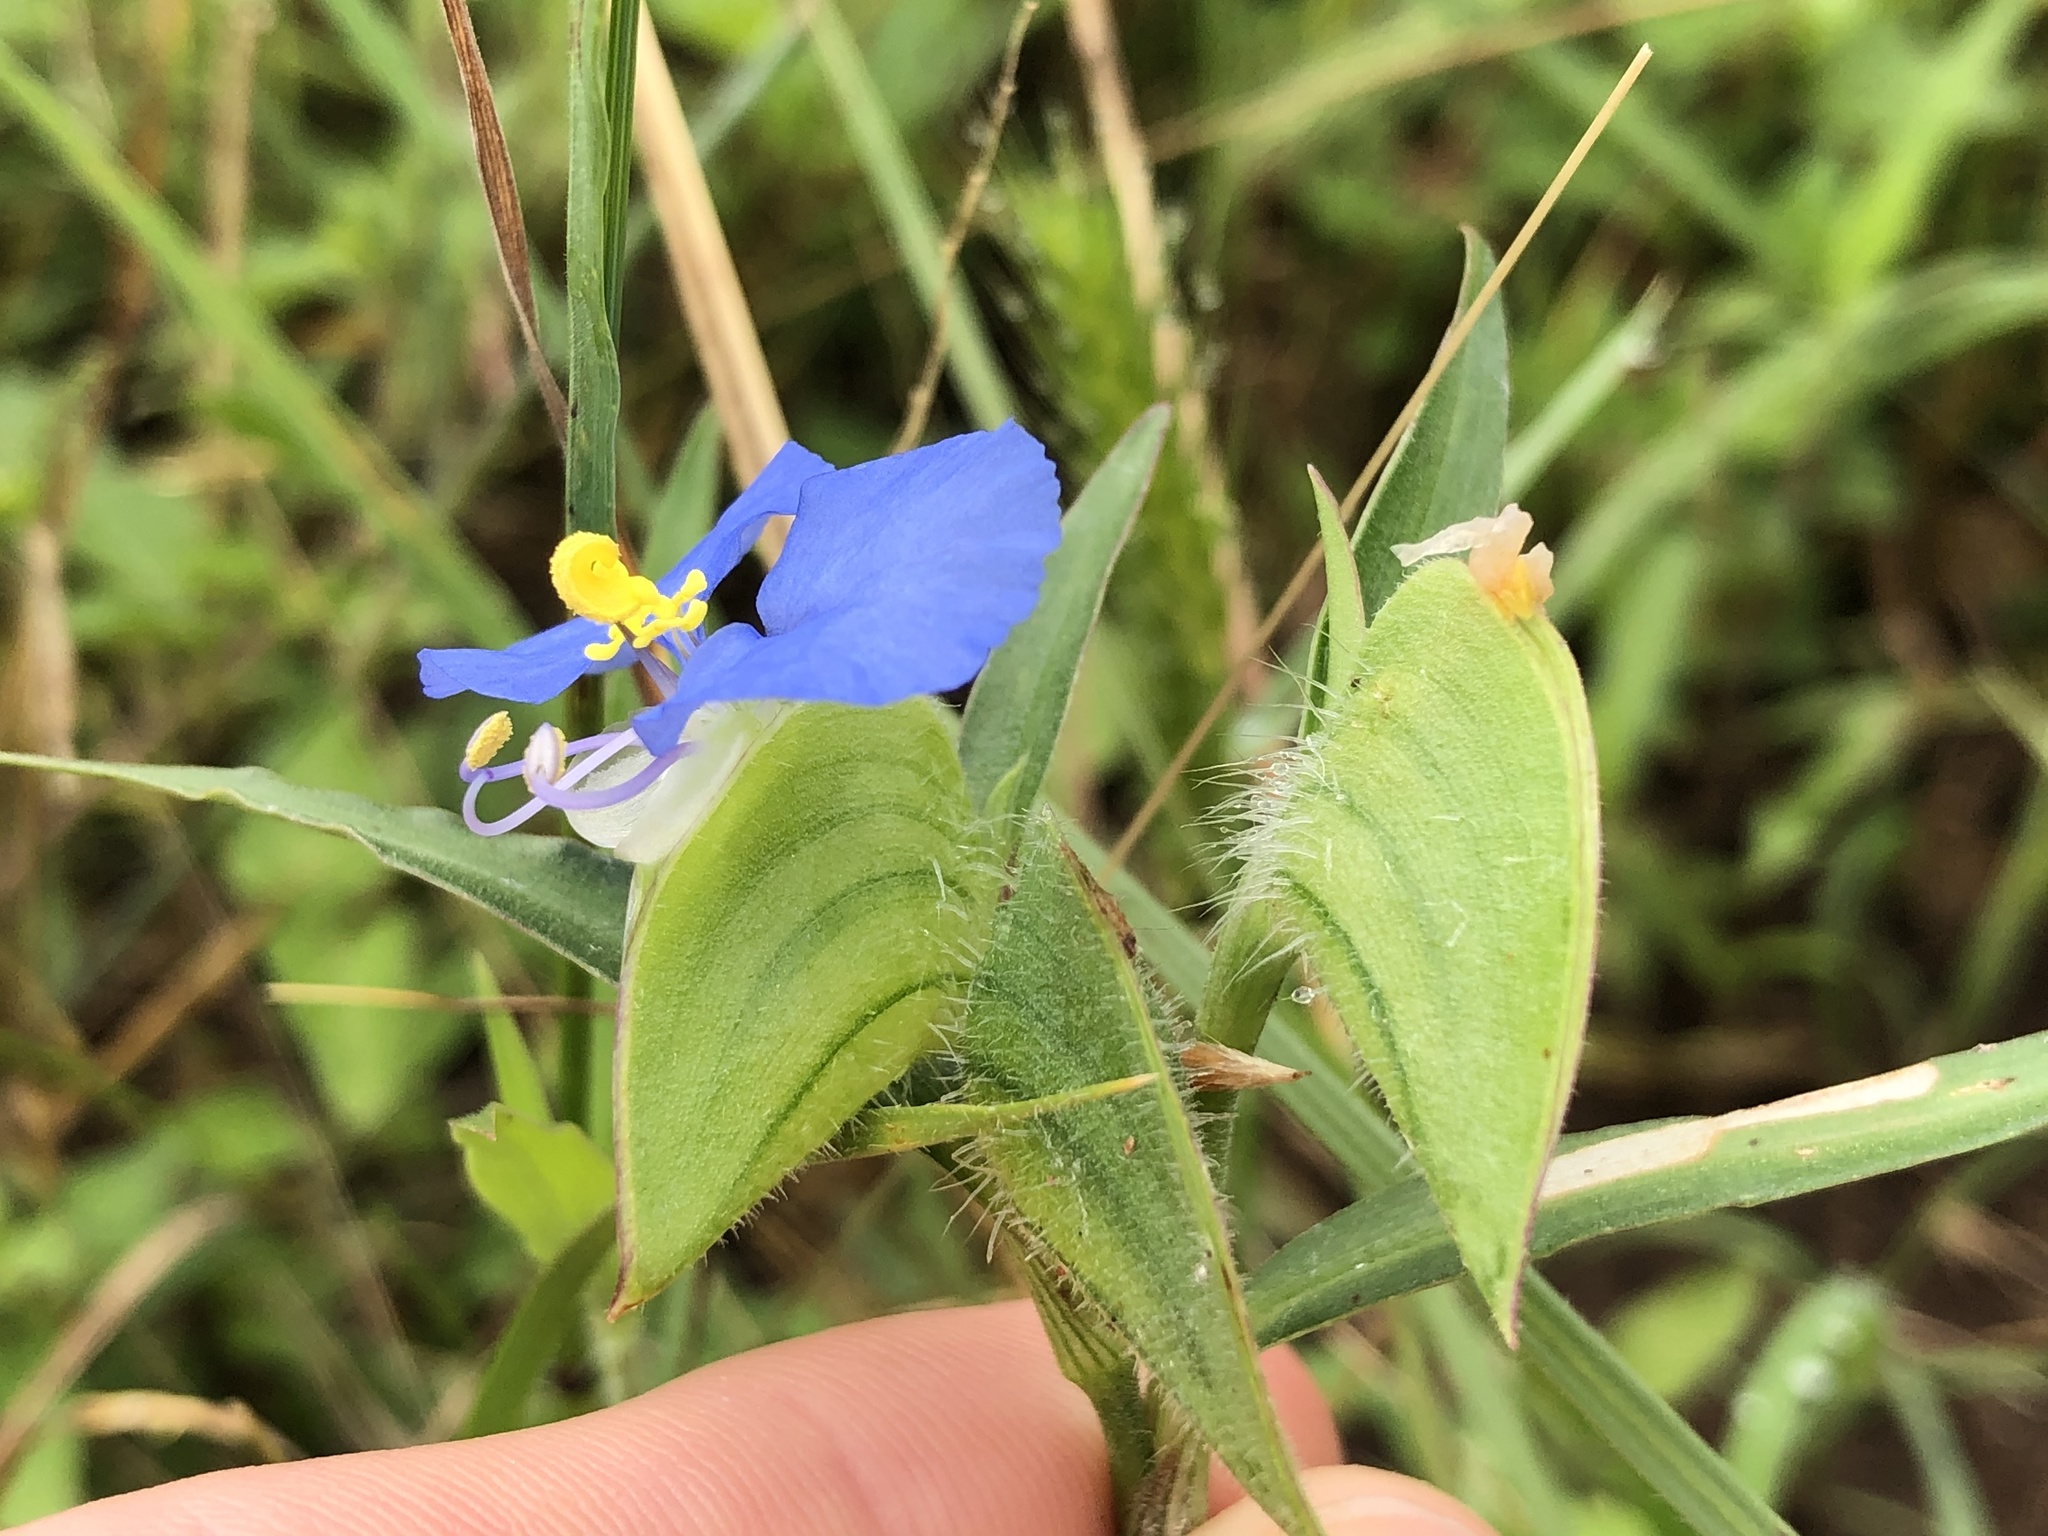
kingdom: Plantae
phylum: Tracheophyta
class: Liliopsida
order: Commelinales
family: Commelinaceae
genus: Commelina
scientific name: Commelina erecta
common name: Blousel blommetjie
